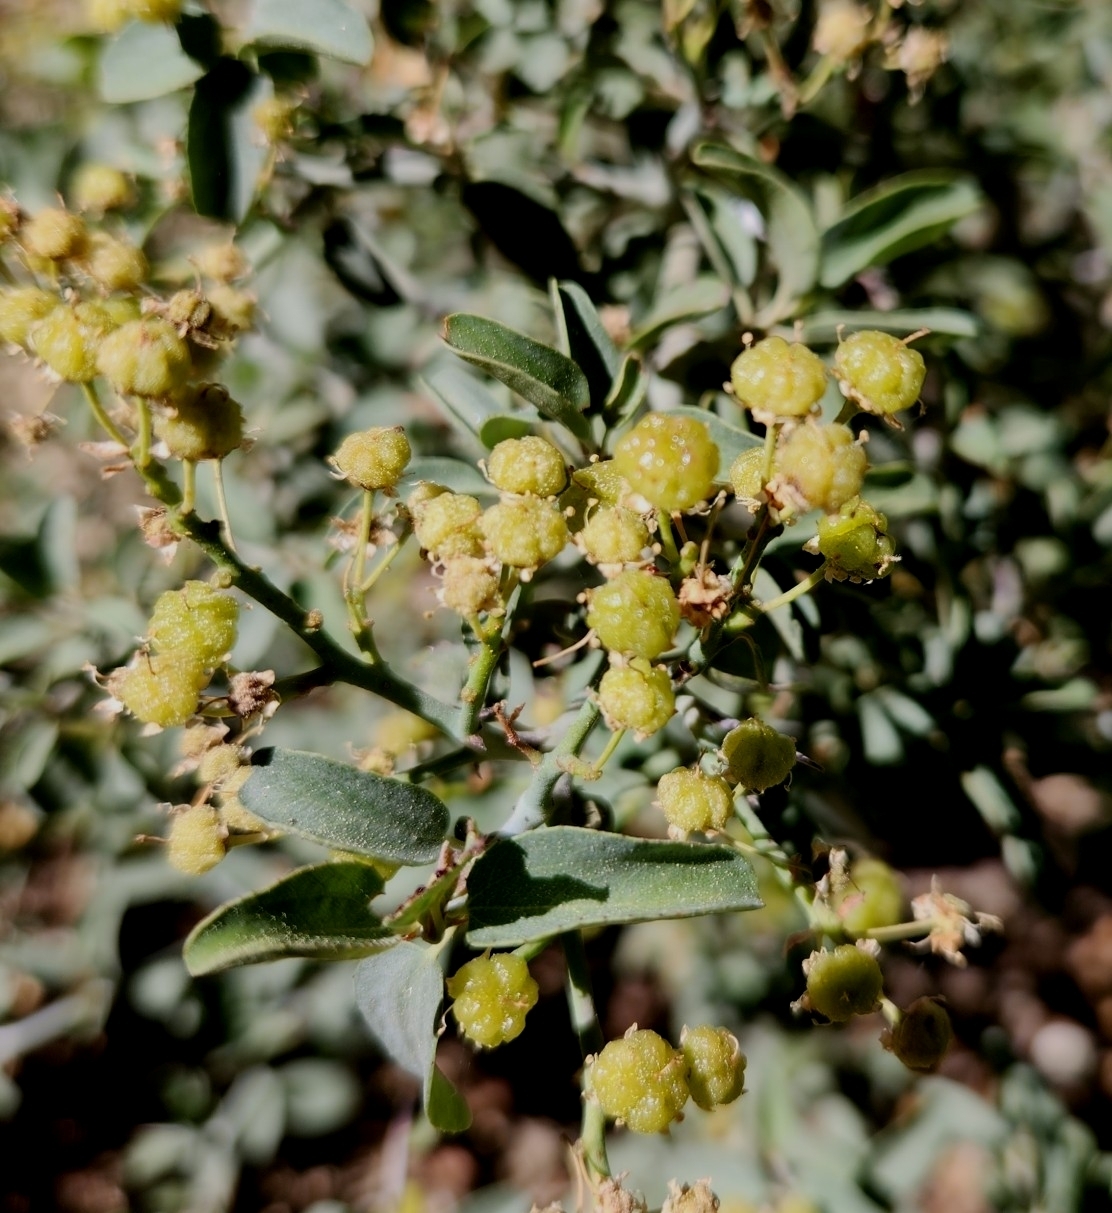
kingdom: Plantae
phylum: Tracheophyta
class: Magnoliopsida
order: Rosales
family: Rhamnaceae
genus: Ceanothus
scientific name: Ceanothus cordulatus
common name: Mountain whitethorn
